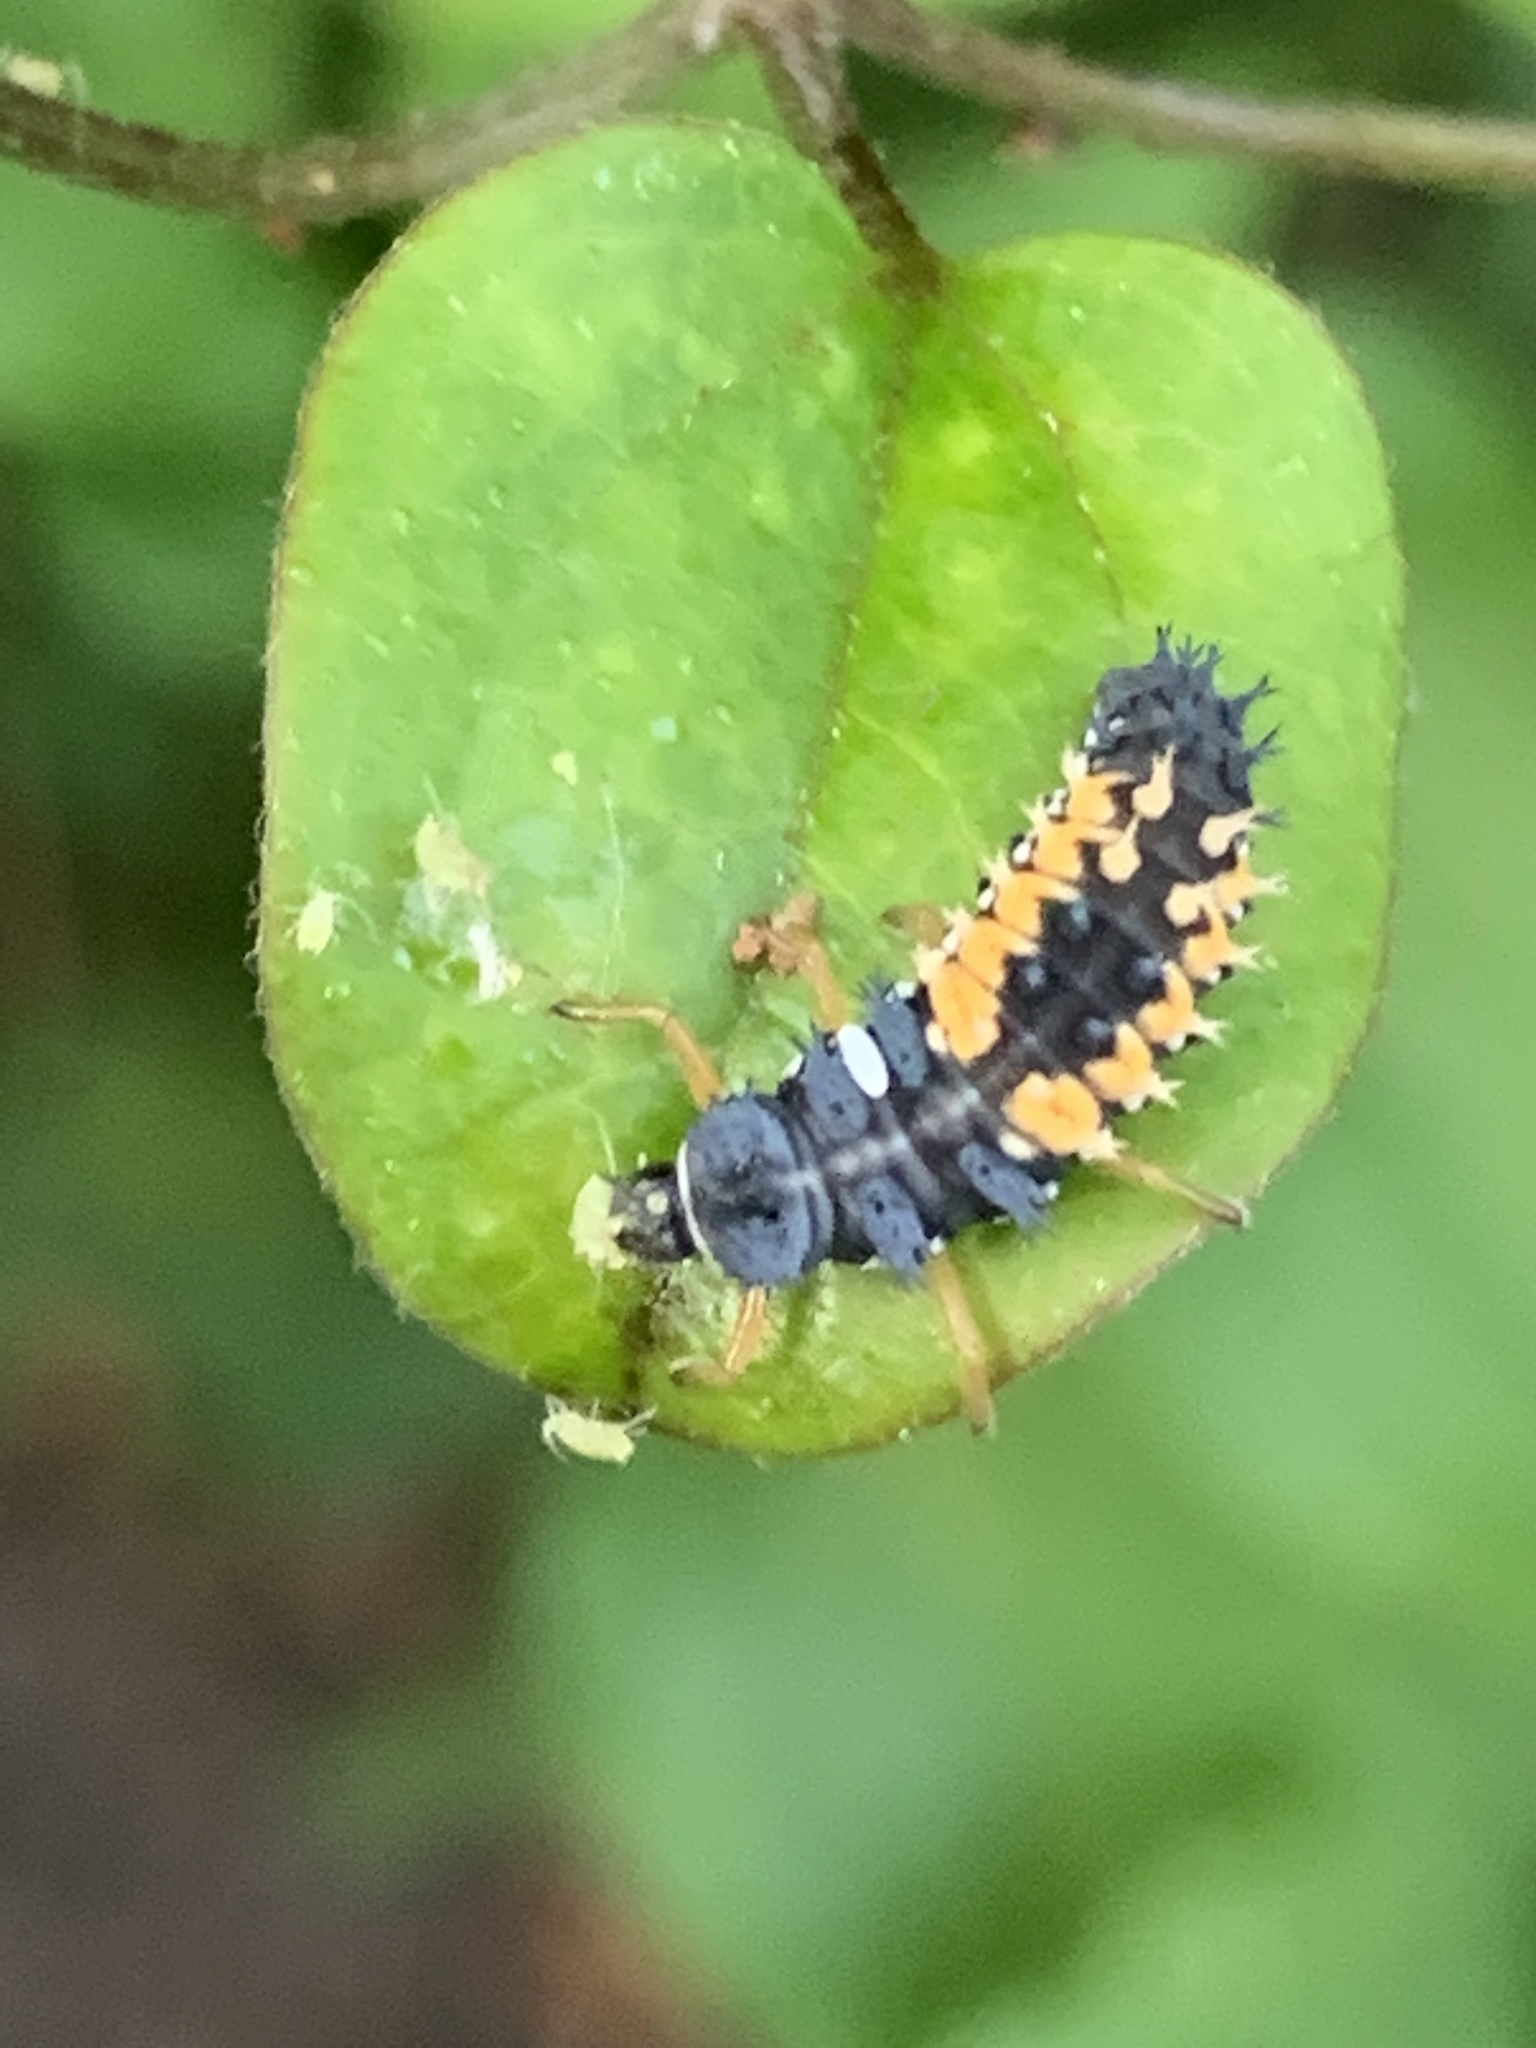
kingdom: Animalia
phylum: Arthropoda
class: Insecta
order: Coleoptera
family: Coccinellidae
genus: Harmonia
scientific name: Harmonia axyridis
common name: Harlequin ladybird
